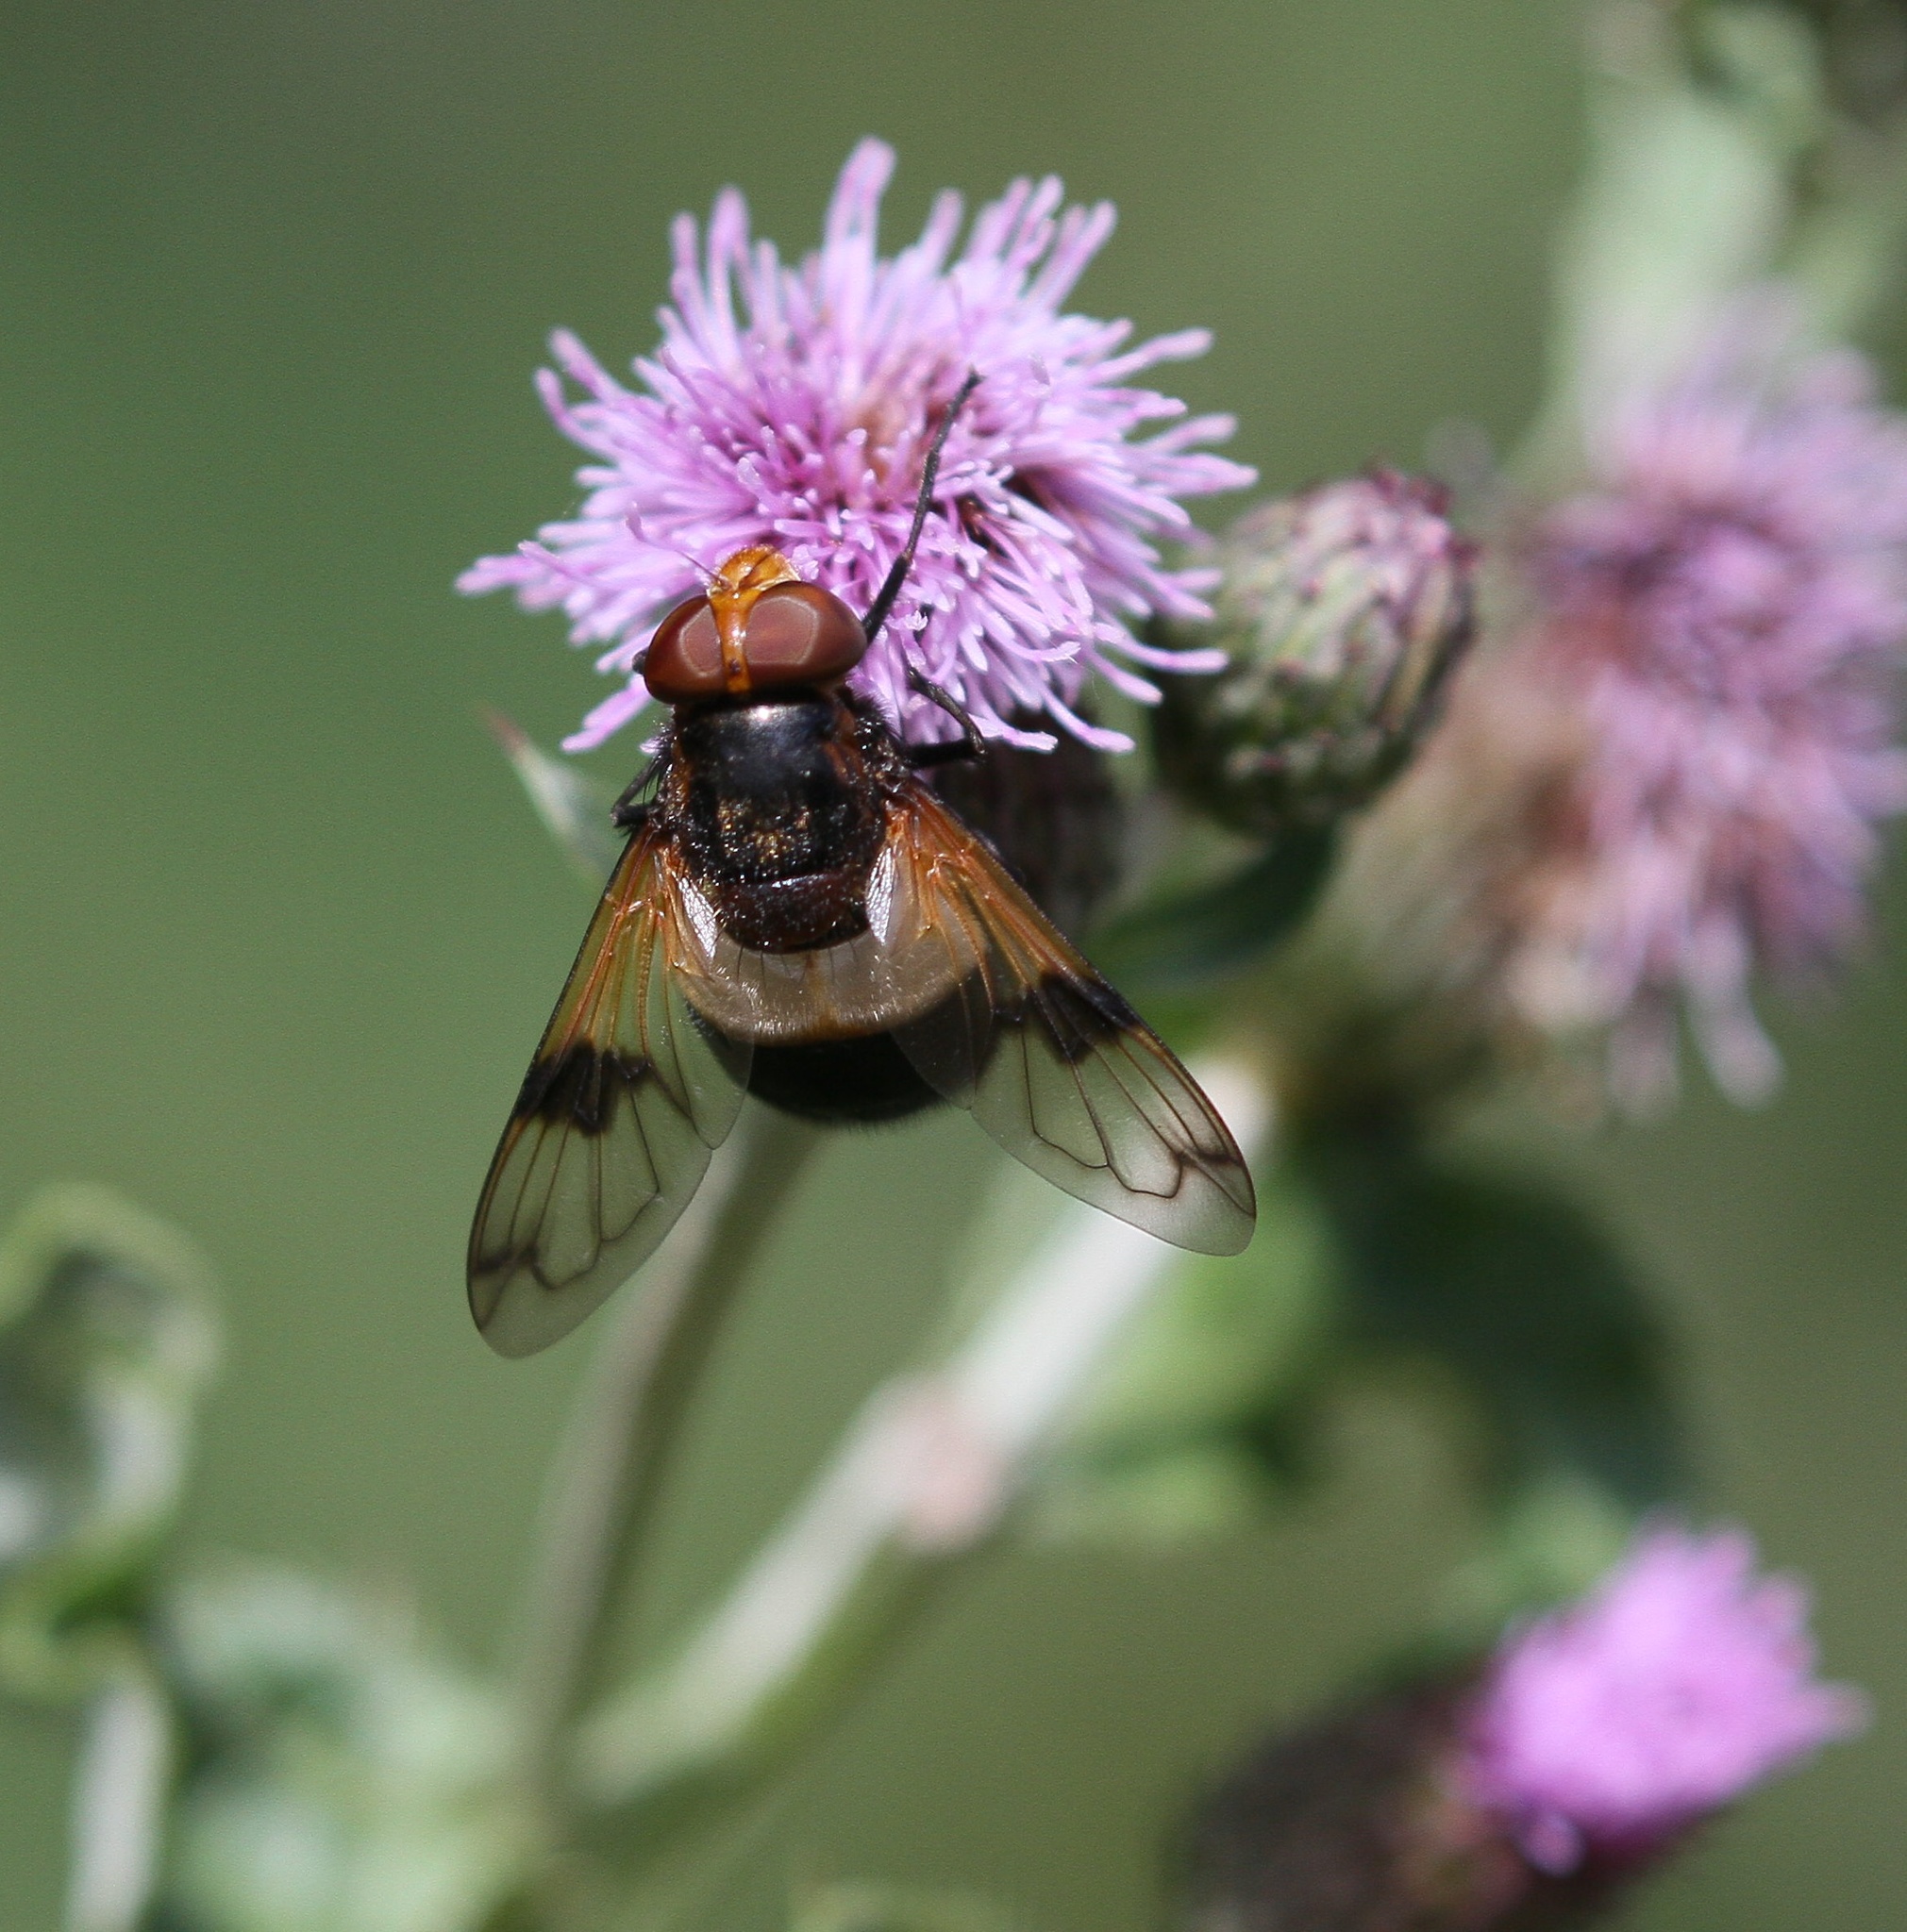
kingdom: Animalia
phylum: Arthropoda
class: Insecta
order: Diptera
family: Syrphidae
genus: Volucella
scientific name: Volucella pellucens
